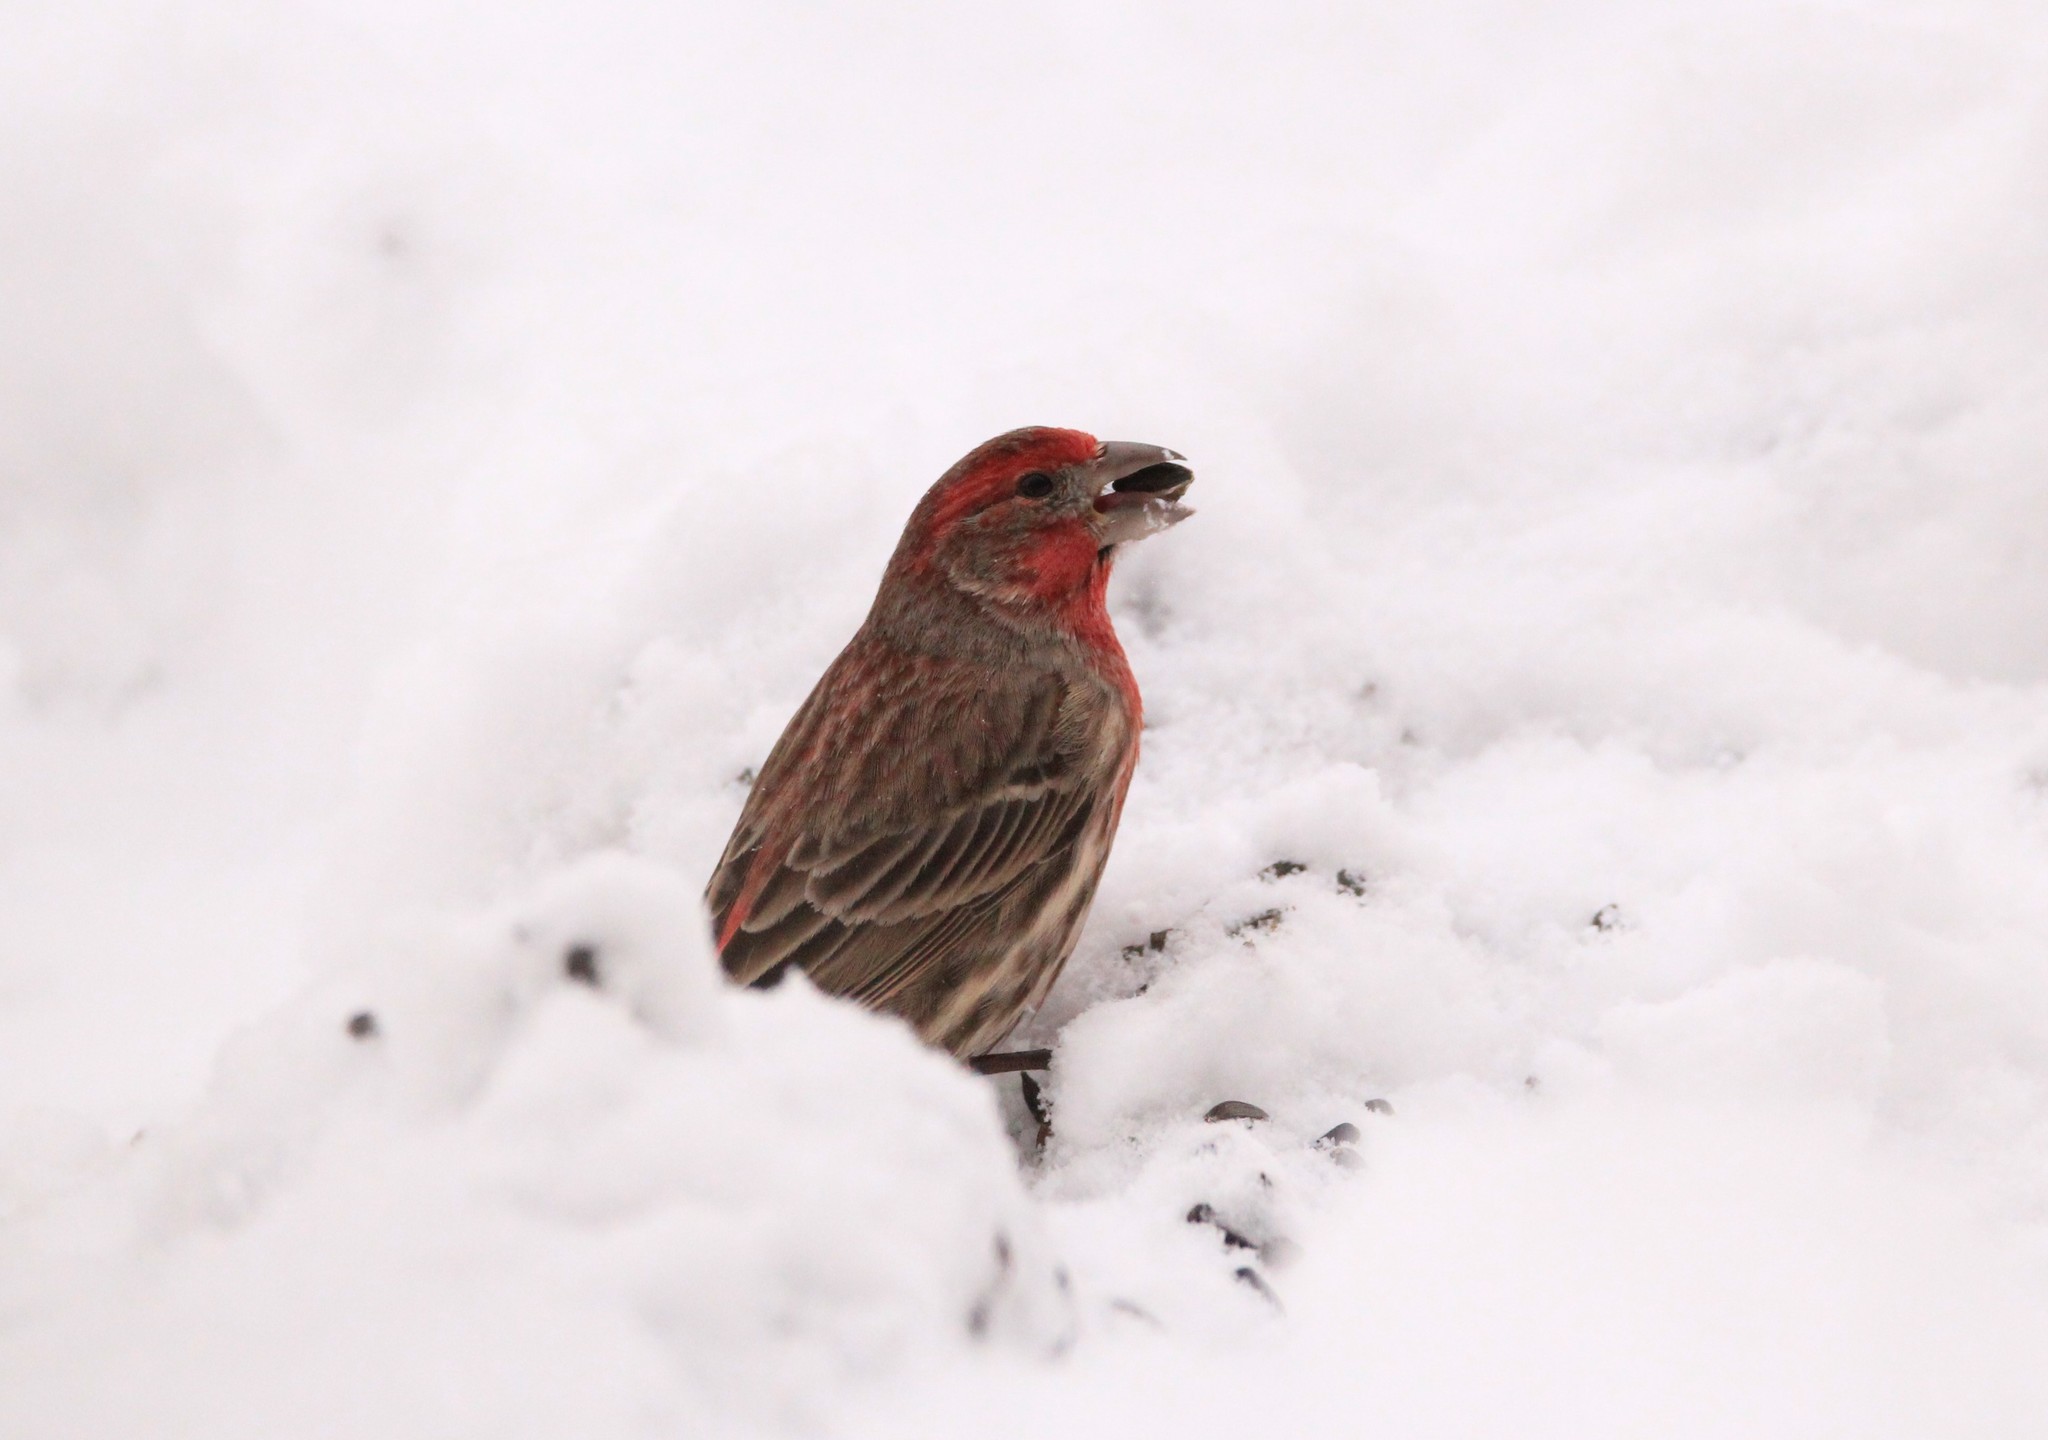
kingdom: Animalia
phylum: Chordata
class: Aves
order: Passeriformes
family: Fringillidae
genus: Haemorhous
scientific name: Haemorhous mexicanus
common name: House finch
